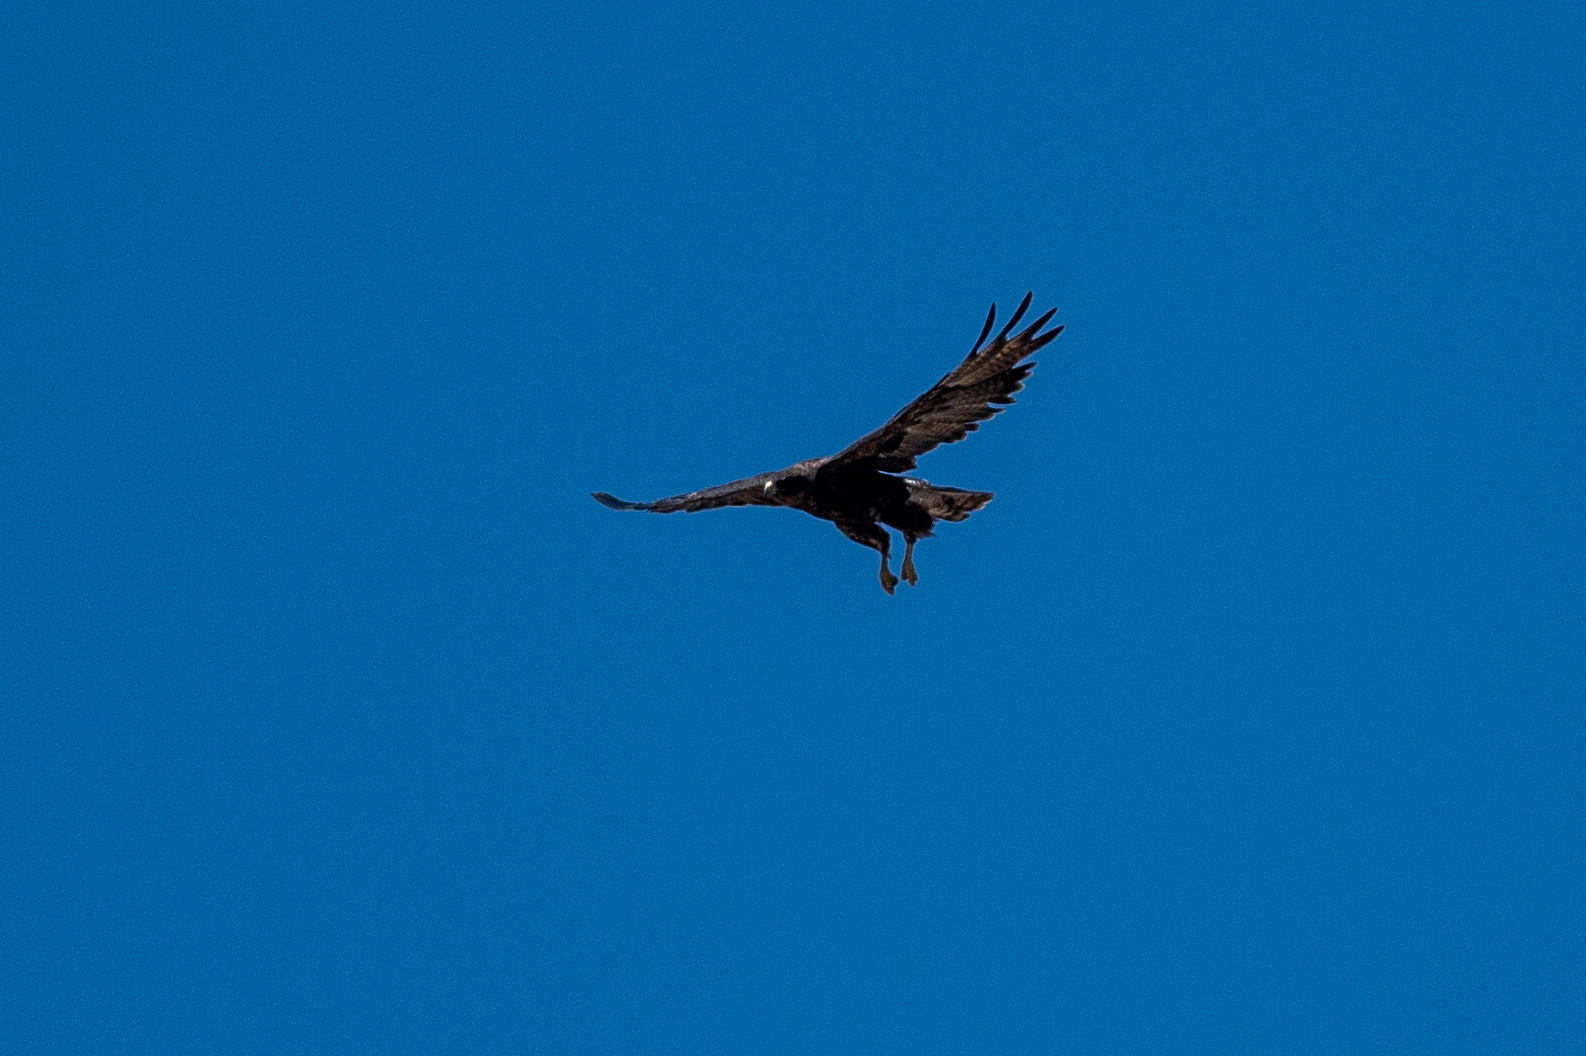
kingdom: Animalia
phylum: Chordata
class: Aves
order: Accipitriformes
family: Accipitridae
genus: Buteo
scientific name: Buteo swainsoni
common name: Swainson's hawk
